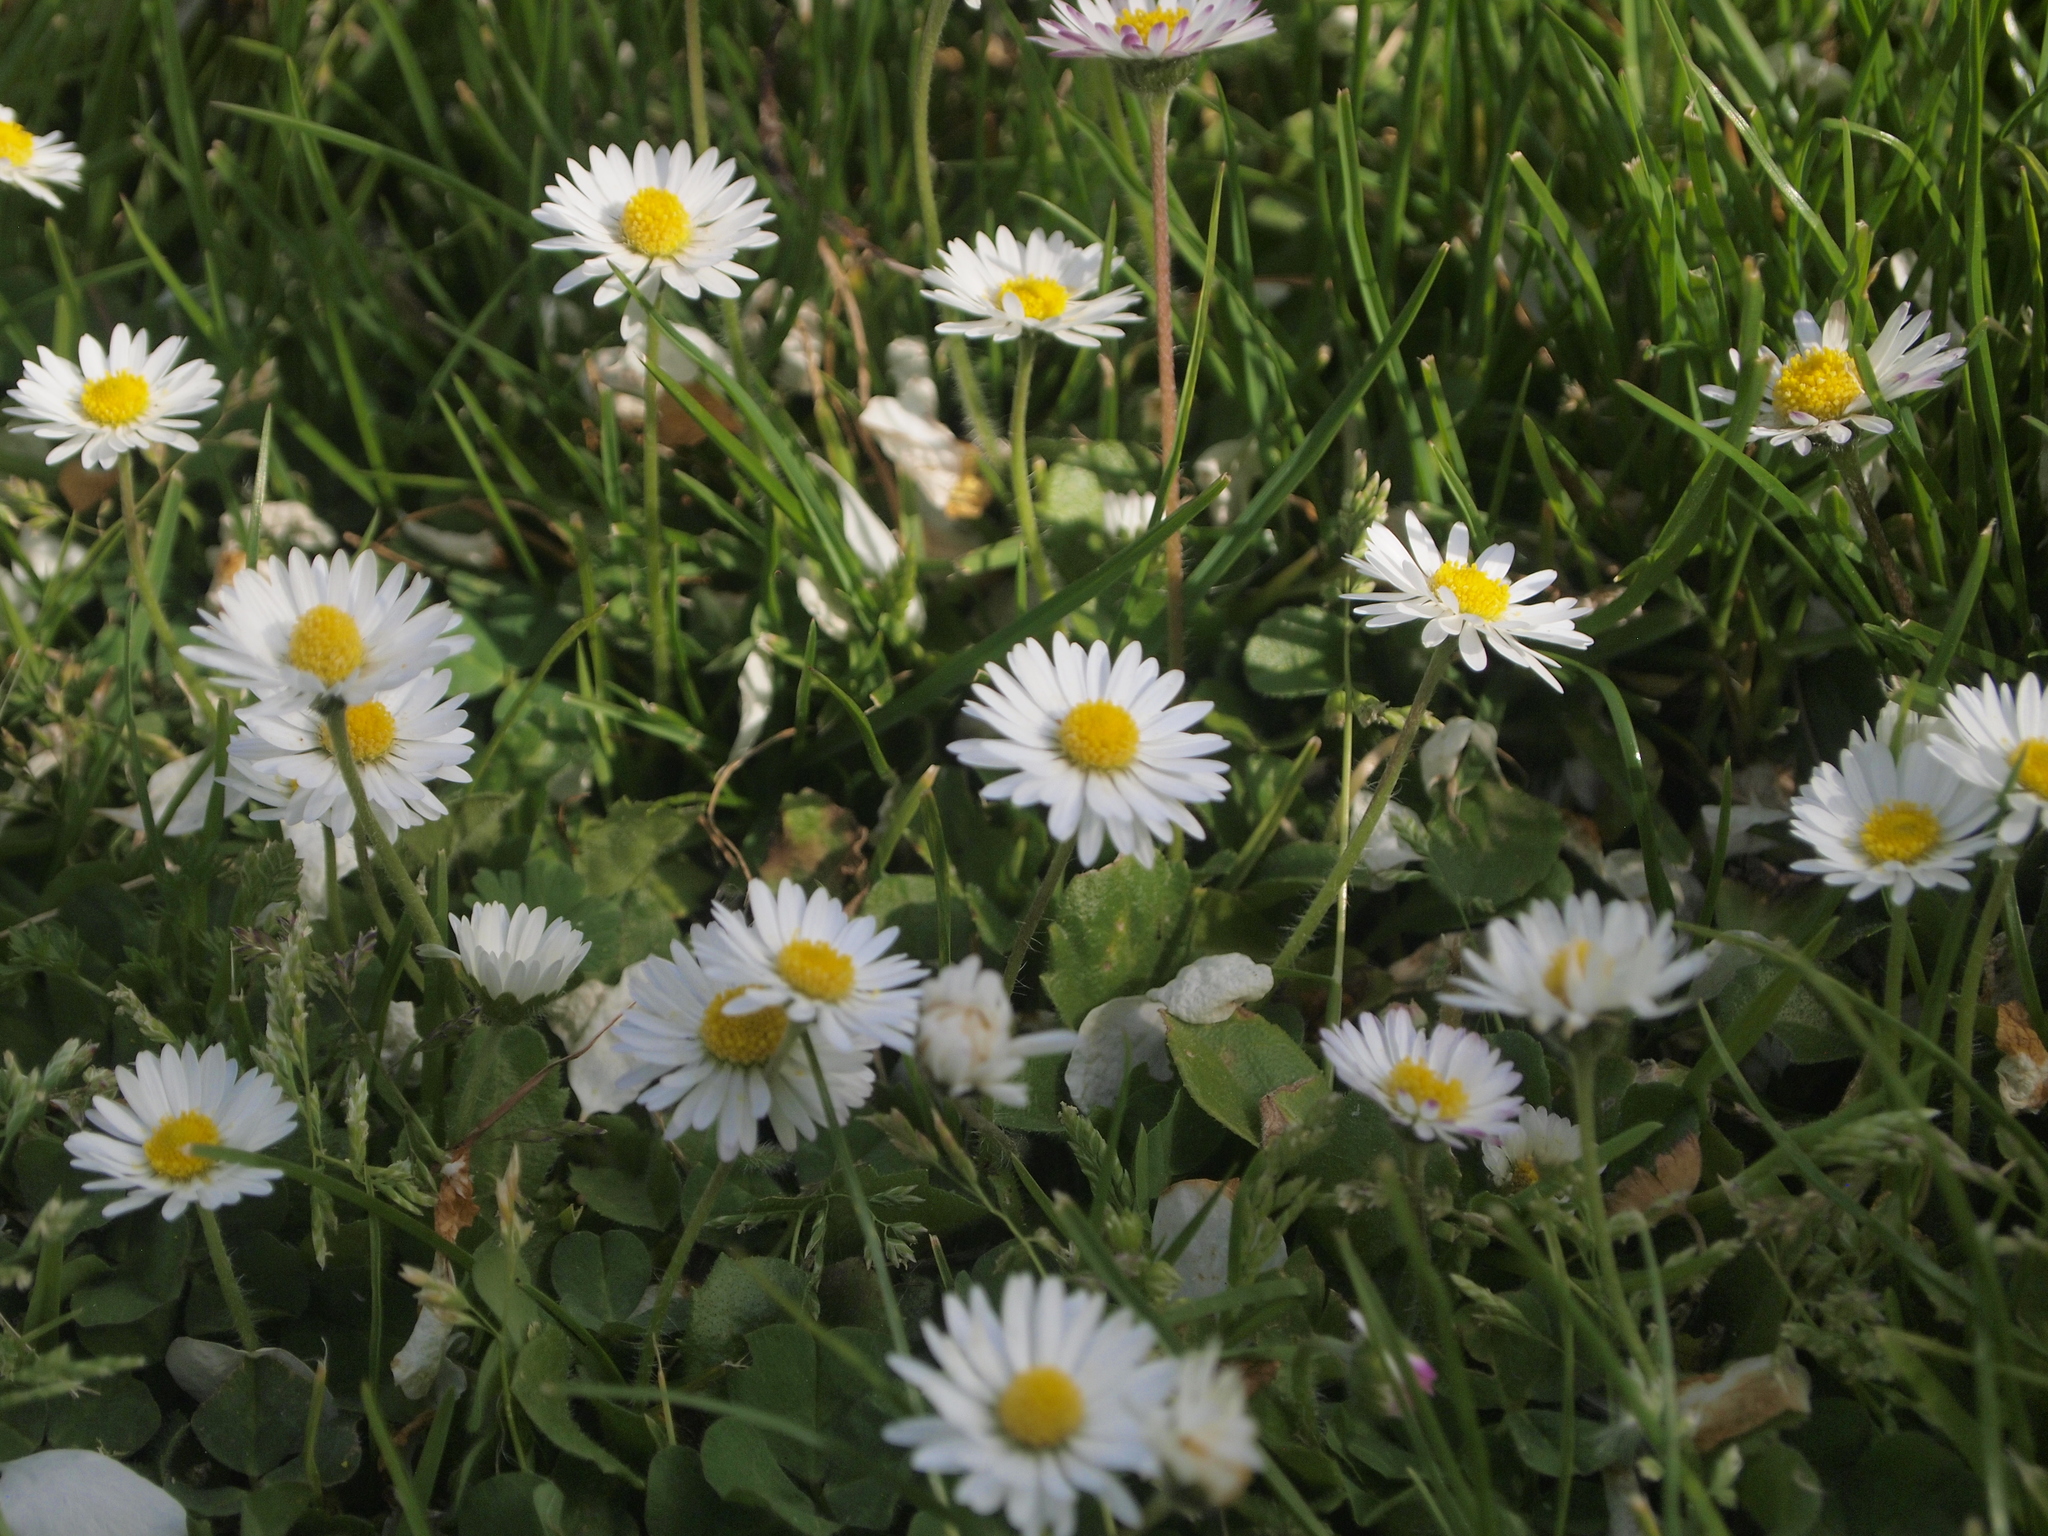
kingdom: Plantae
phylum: Tracheophyta
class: Magnoliopsida
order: Asterales
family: Asteraceae
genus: Bellis
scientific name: Bellis perennis
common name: Lawndaisy
